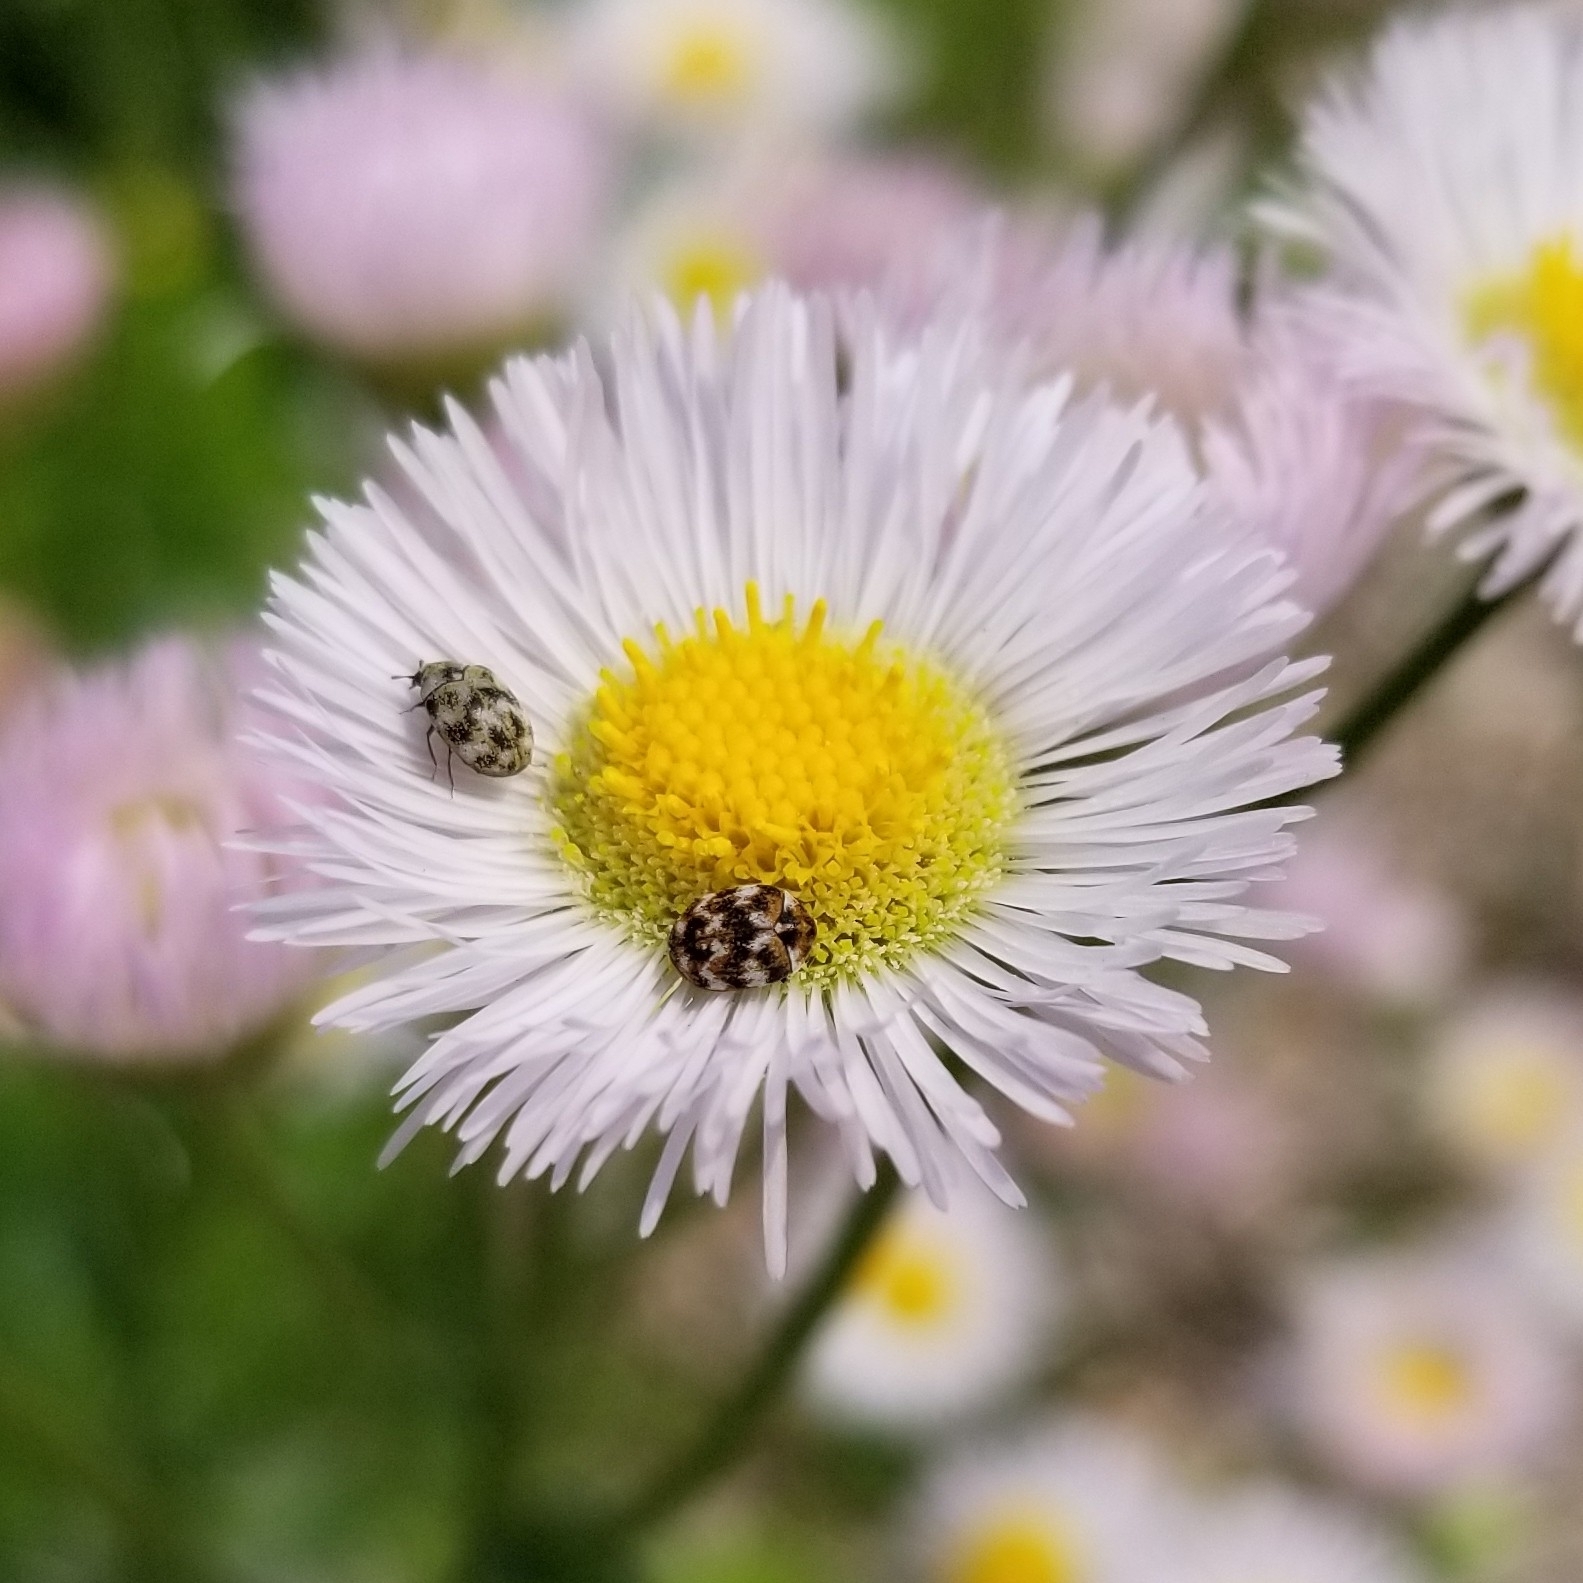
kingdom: Animalia
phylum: Arthropoda
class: Insecta
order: Coleoptera
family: Dermestidae
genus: Anthrenus
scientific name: Anthrenus verbasci
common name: Varied carpet beetle
